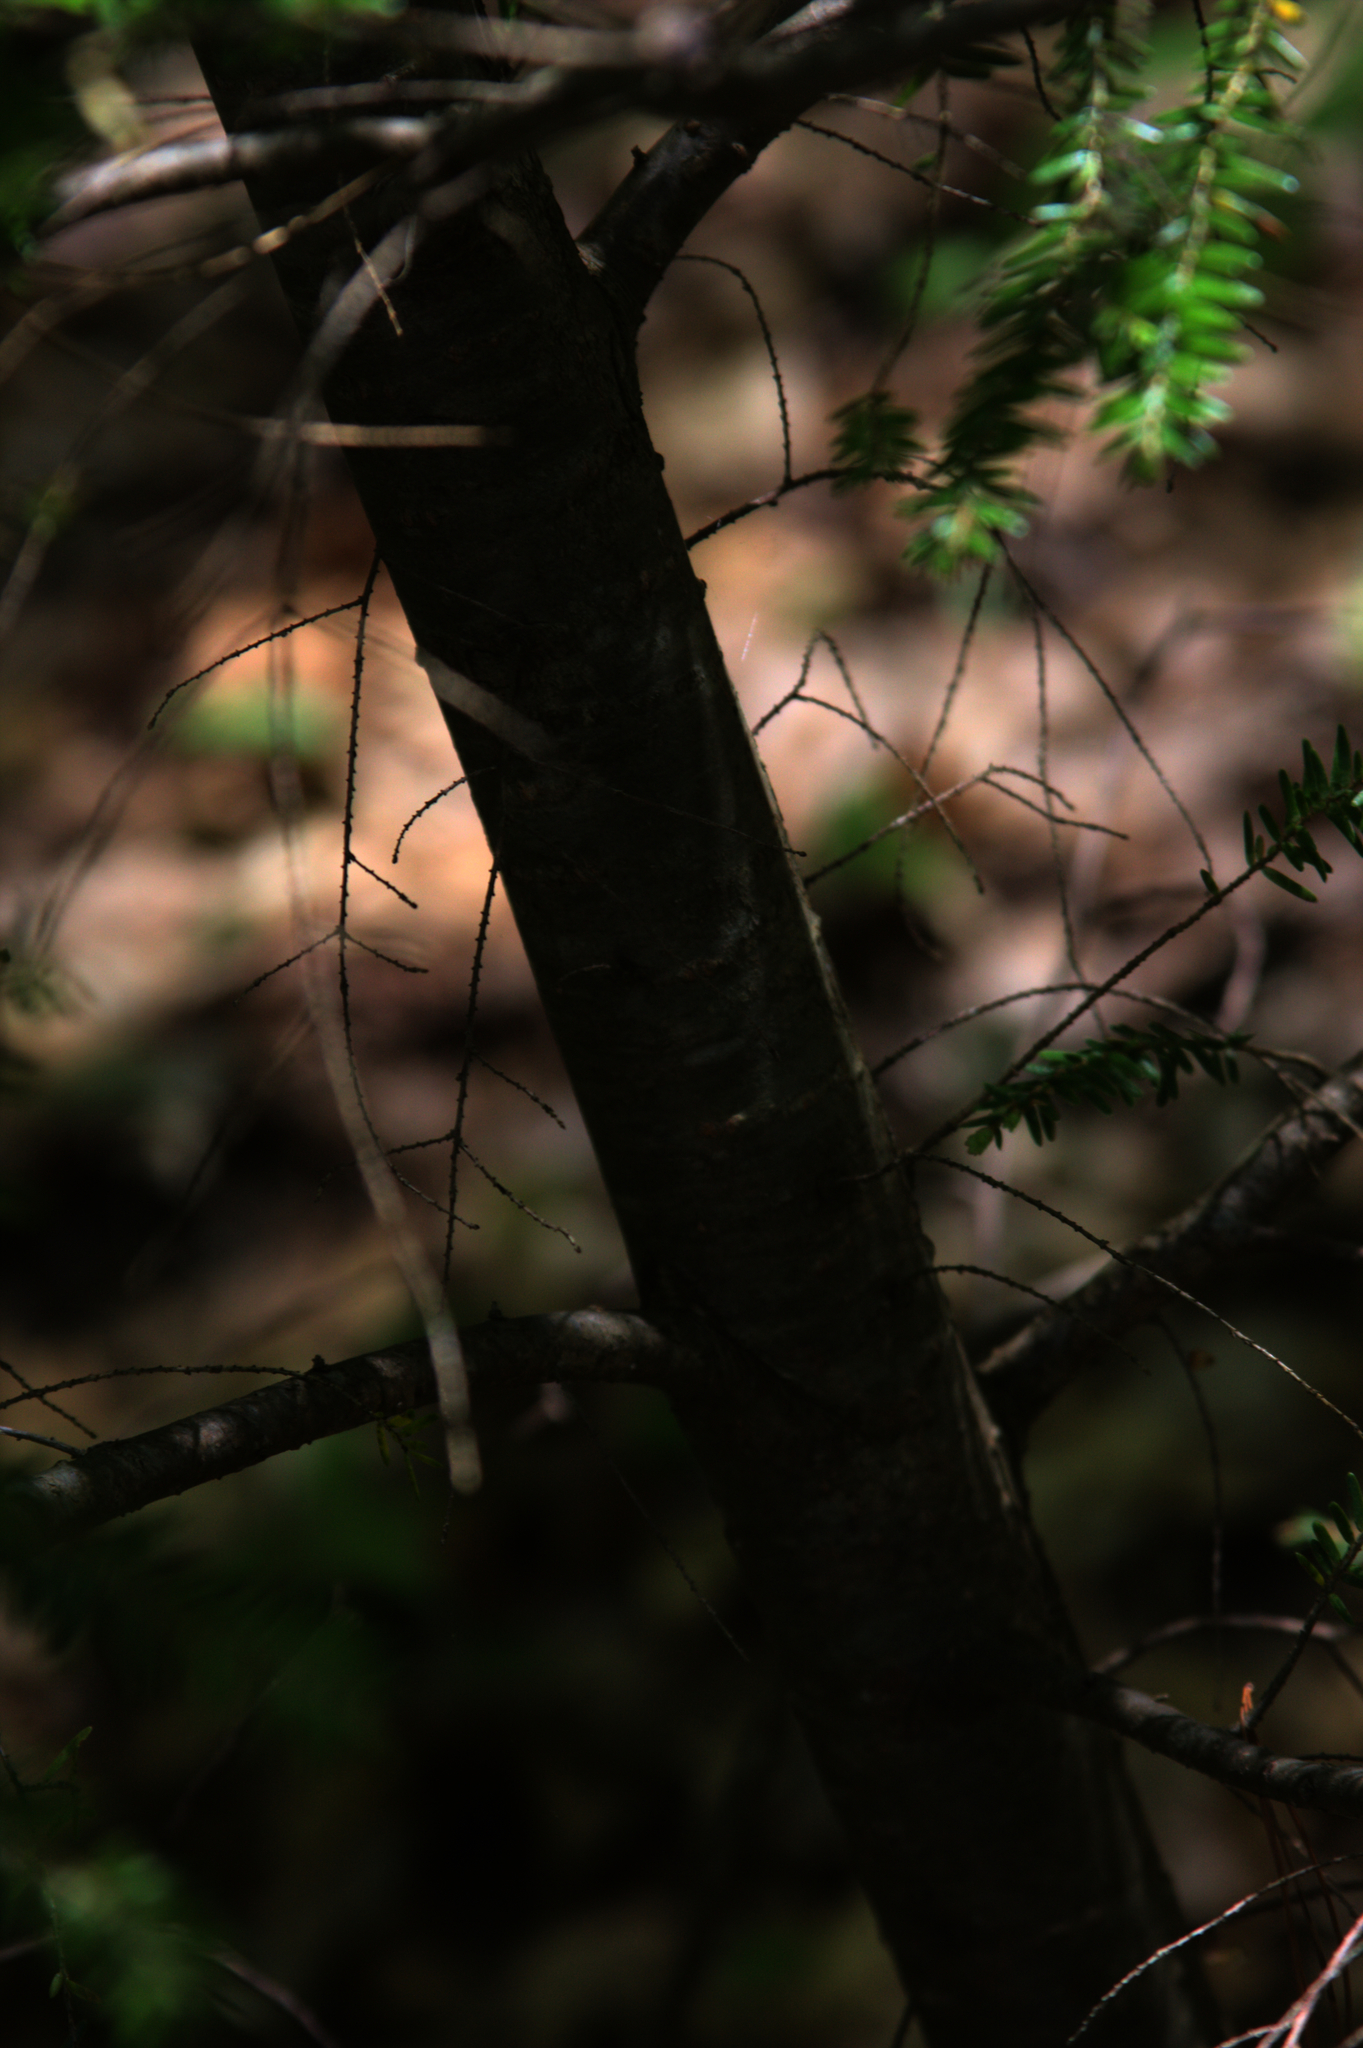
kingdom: Plantae
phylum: Tracheophyta
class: Pinopsida
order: Pinales
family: Pinaceae
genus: Tsuga
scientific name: Tsuga canadensis
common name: Eastern hemlock
